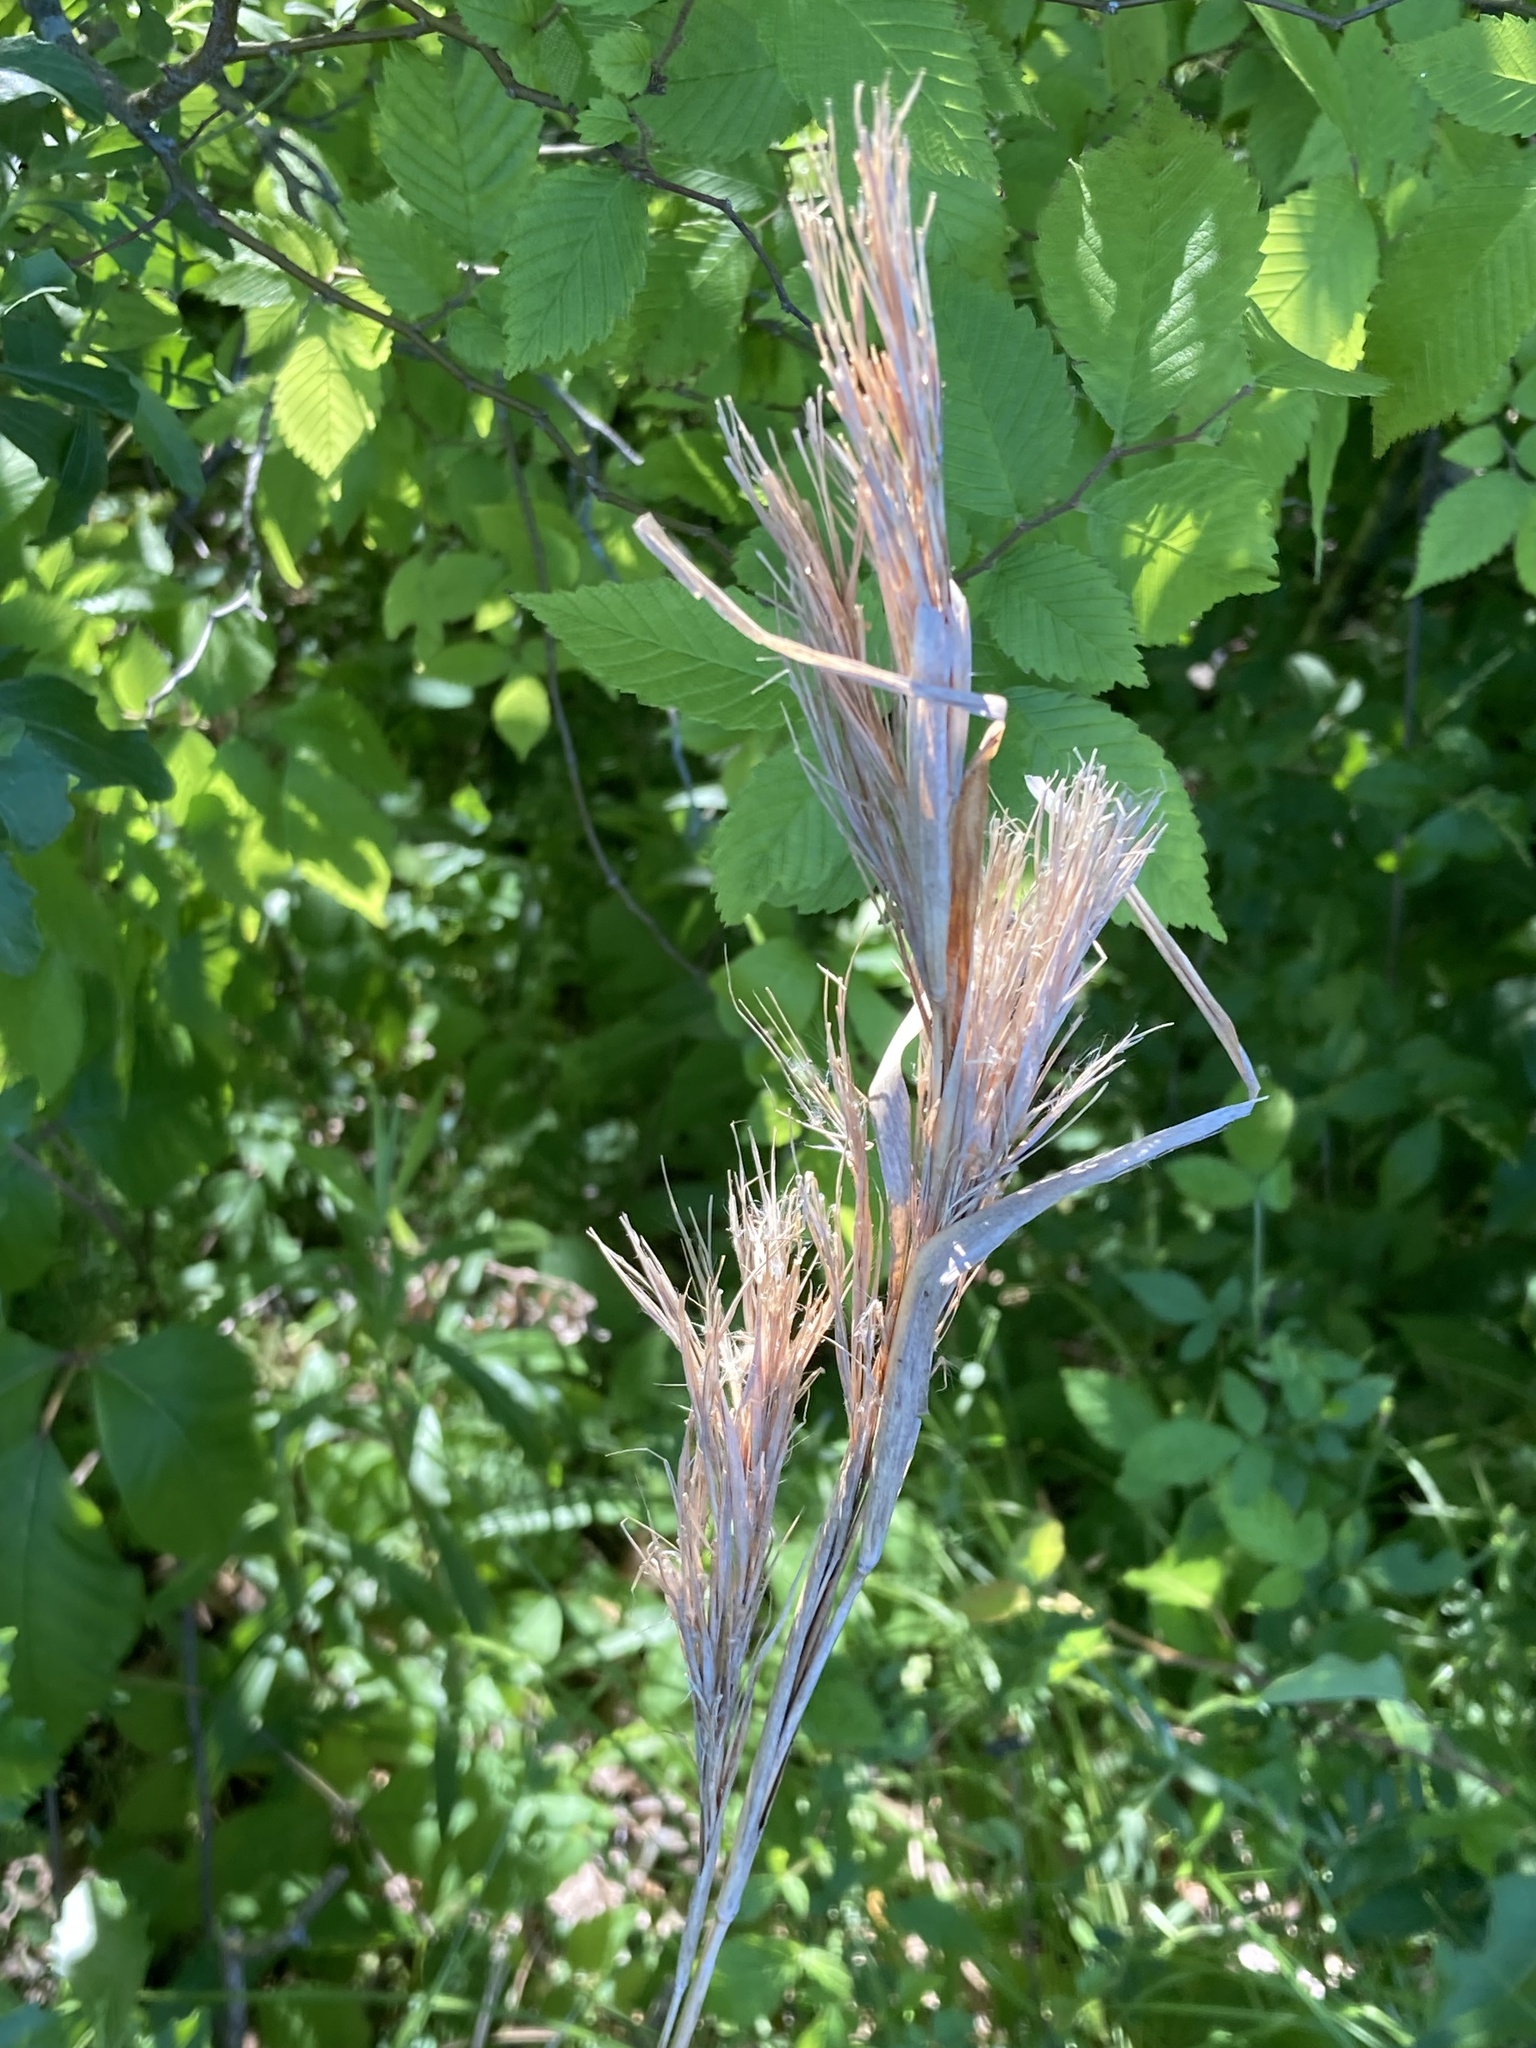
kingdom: Plantae
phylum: Tracheophyta
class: Liliopsida
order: Poales
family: Poaceae
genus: Andropogon
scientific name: Andropogon tenuispatheus
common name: Bushy bluestem
